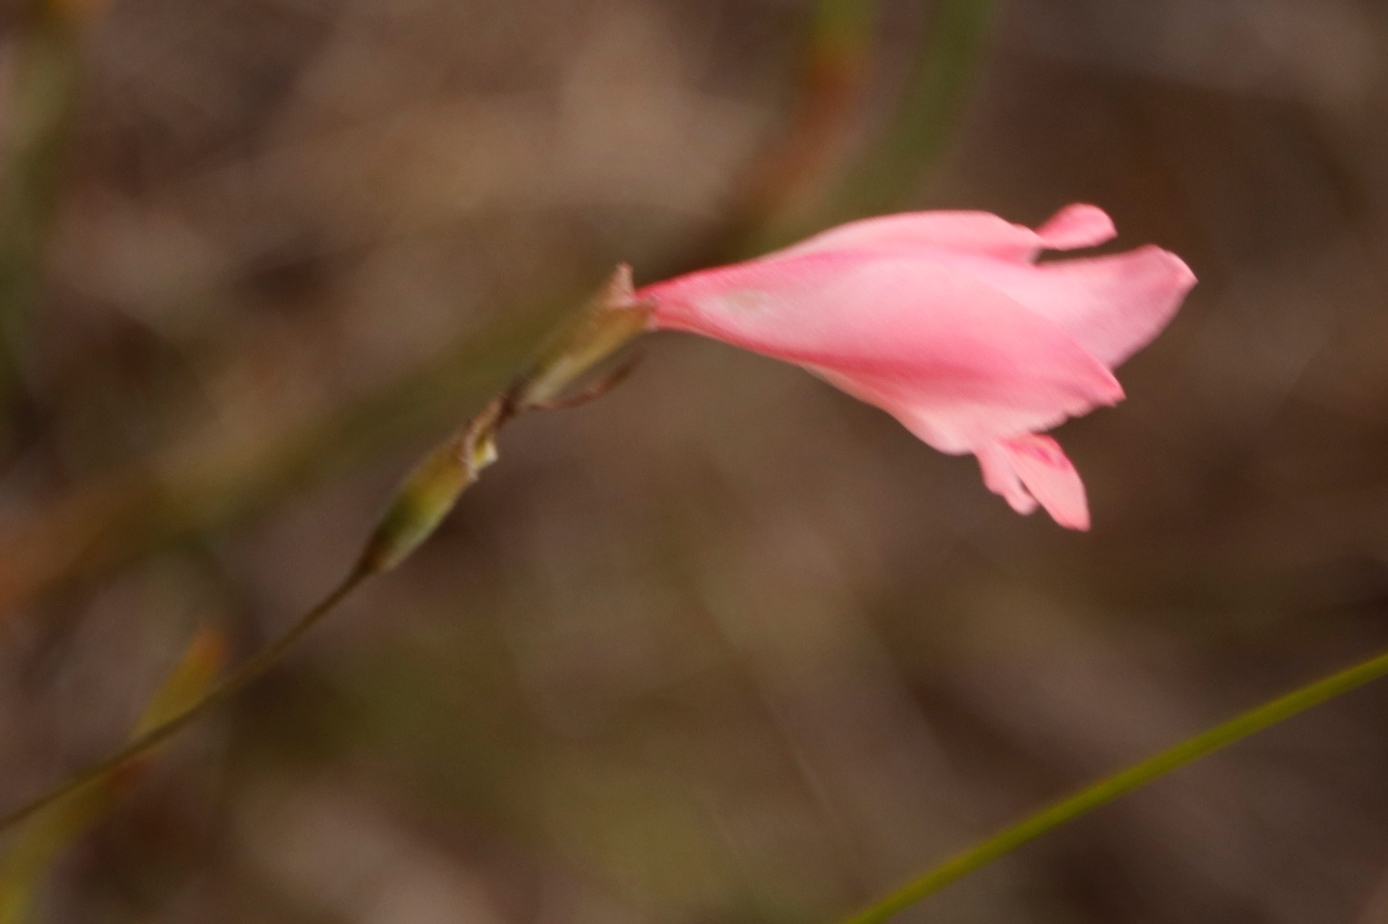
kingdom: Plantae
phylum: Tracheophyta
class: Liliopsida
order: Asparagales
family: Iridaceae
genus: Gladiolus
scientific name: Gladiolus brevifolius
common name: March pypie
